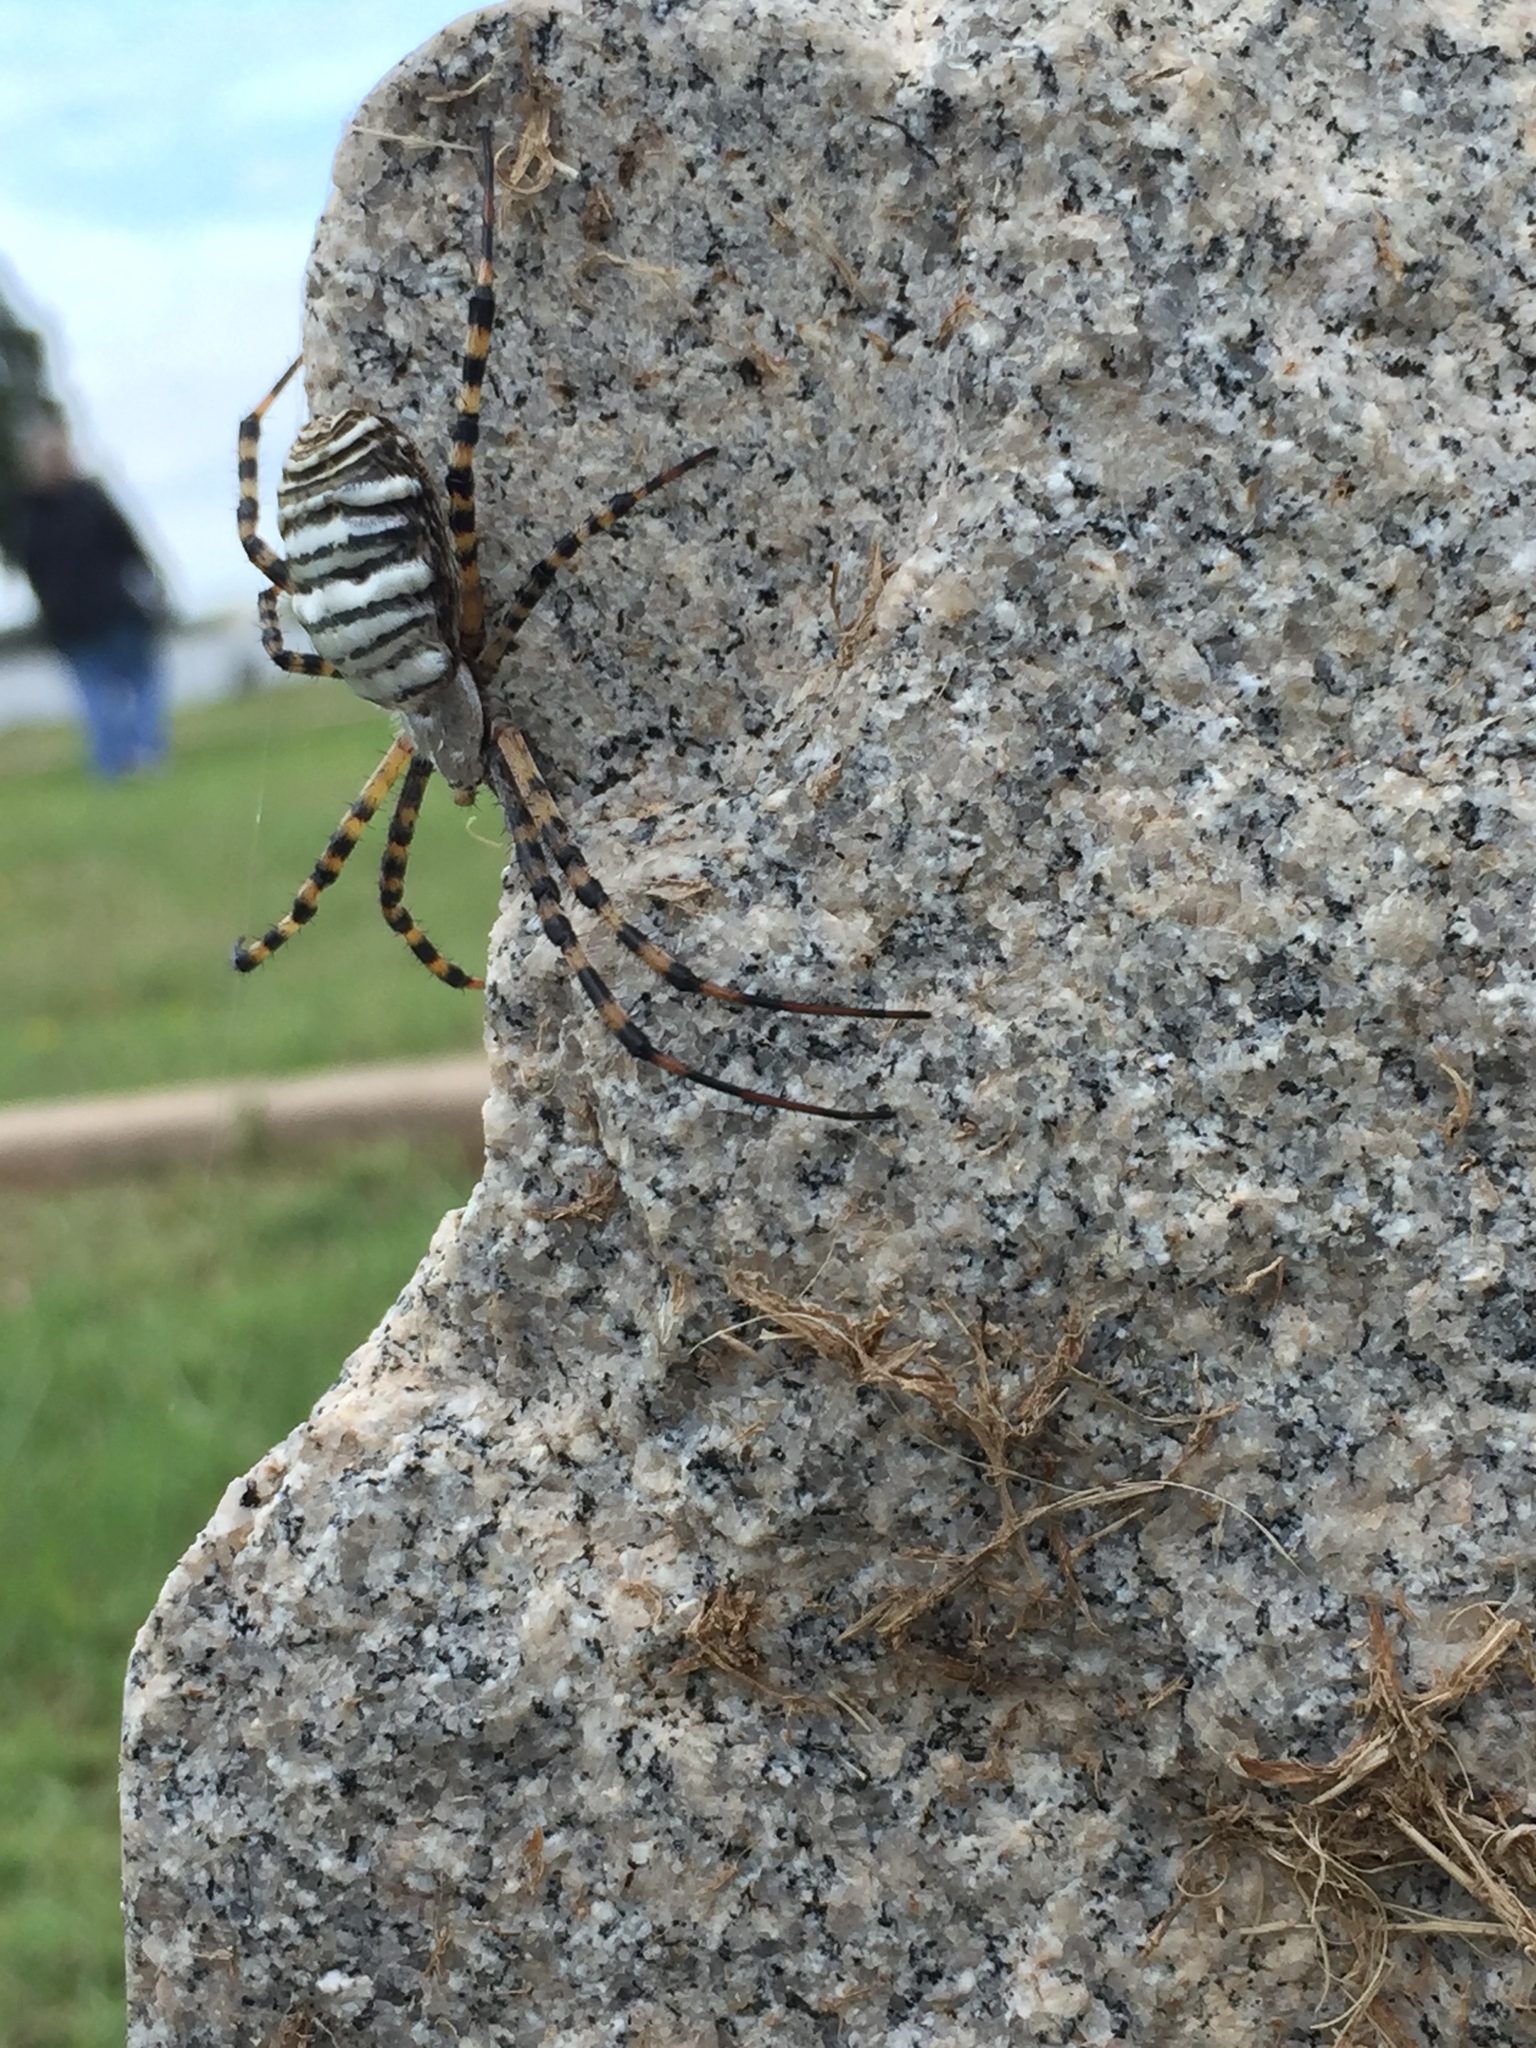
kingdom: Animalia
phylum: Arthropoda
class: Arachnida
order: Araneae
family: Araneidae
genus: Argiope
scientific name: Argiope trifasciata
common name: Banded garden spider
